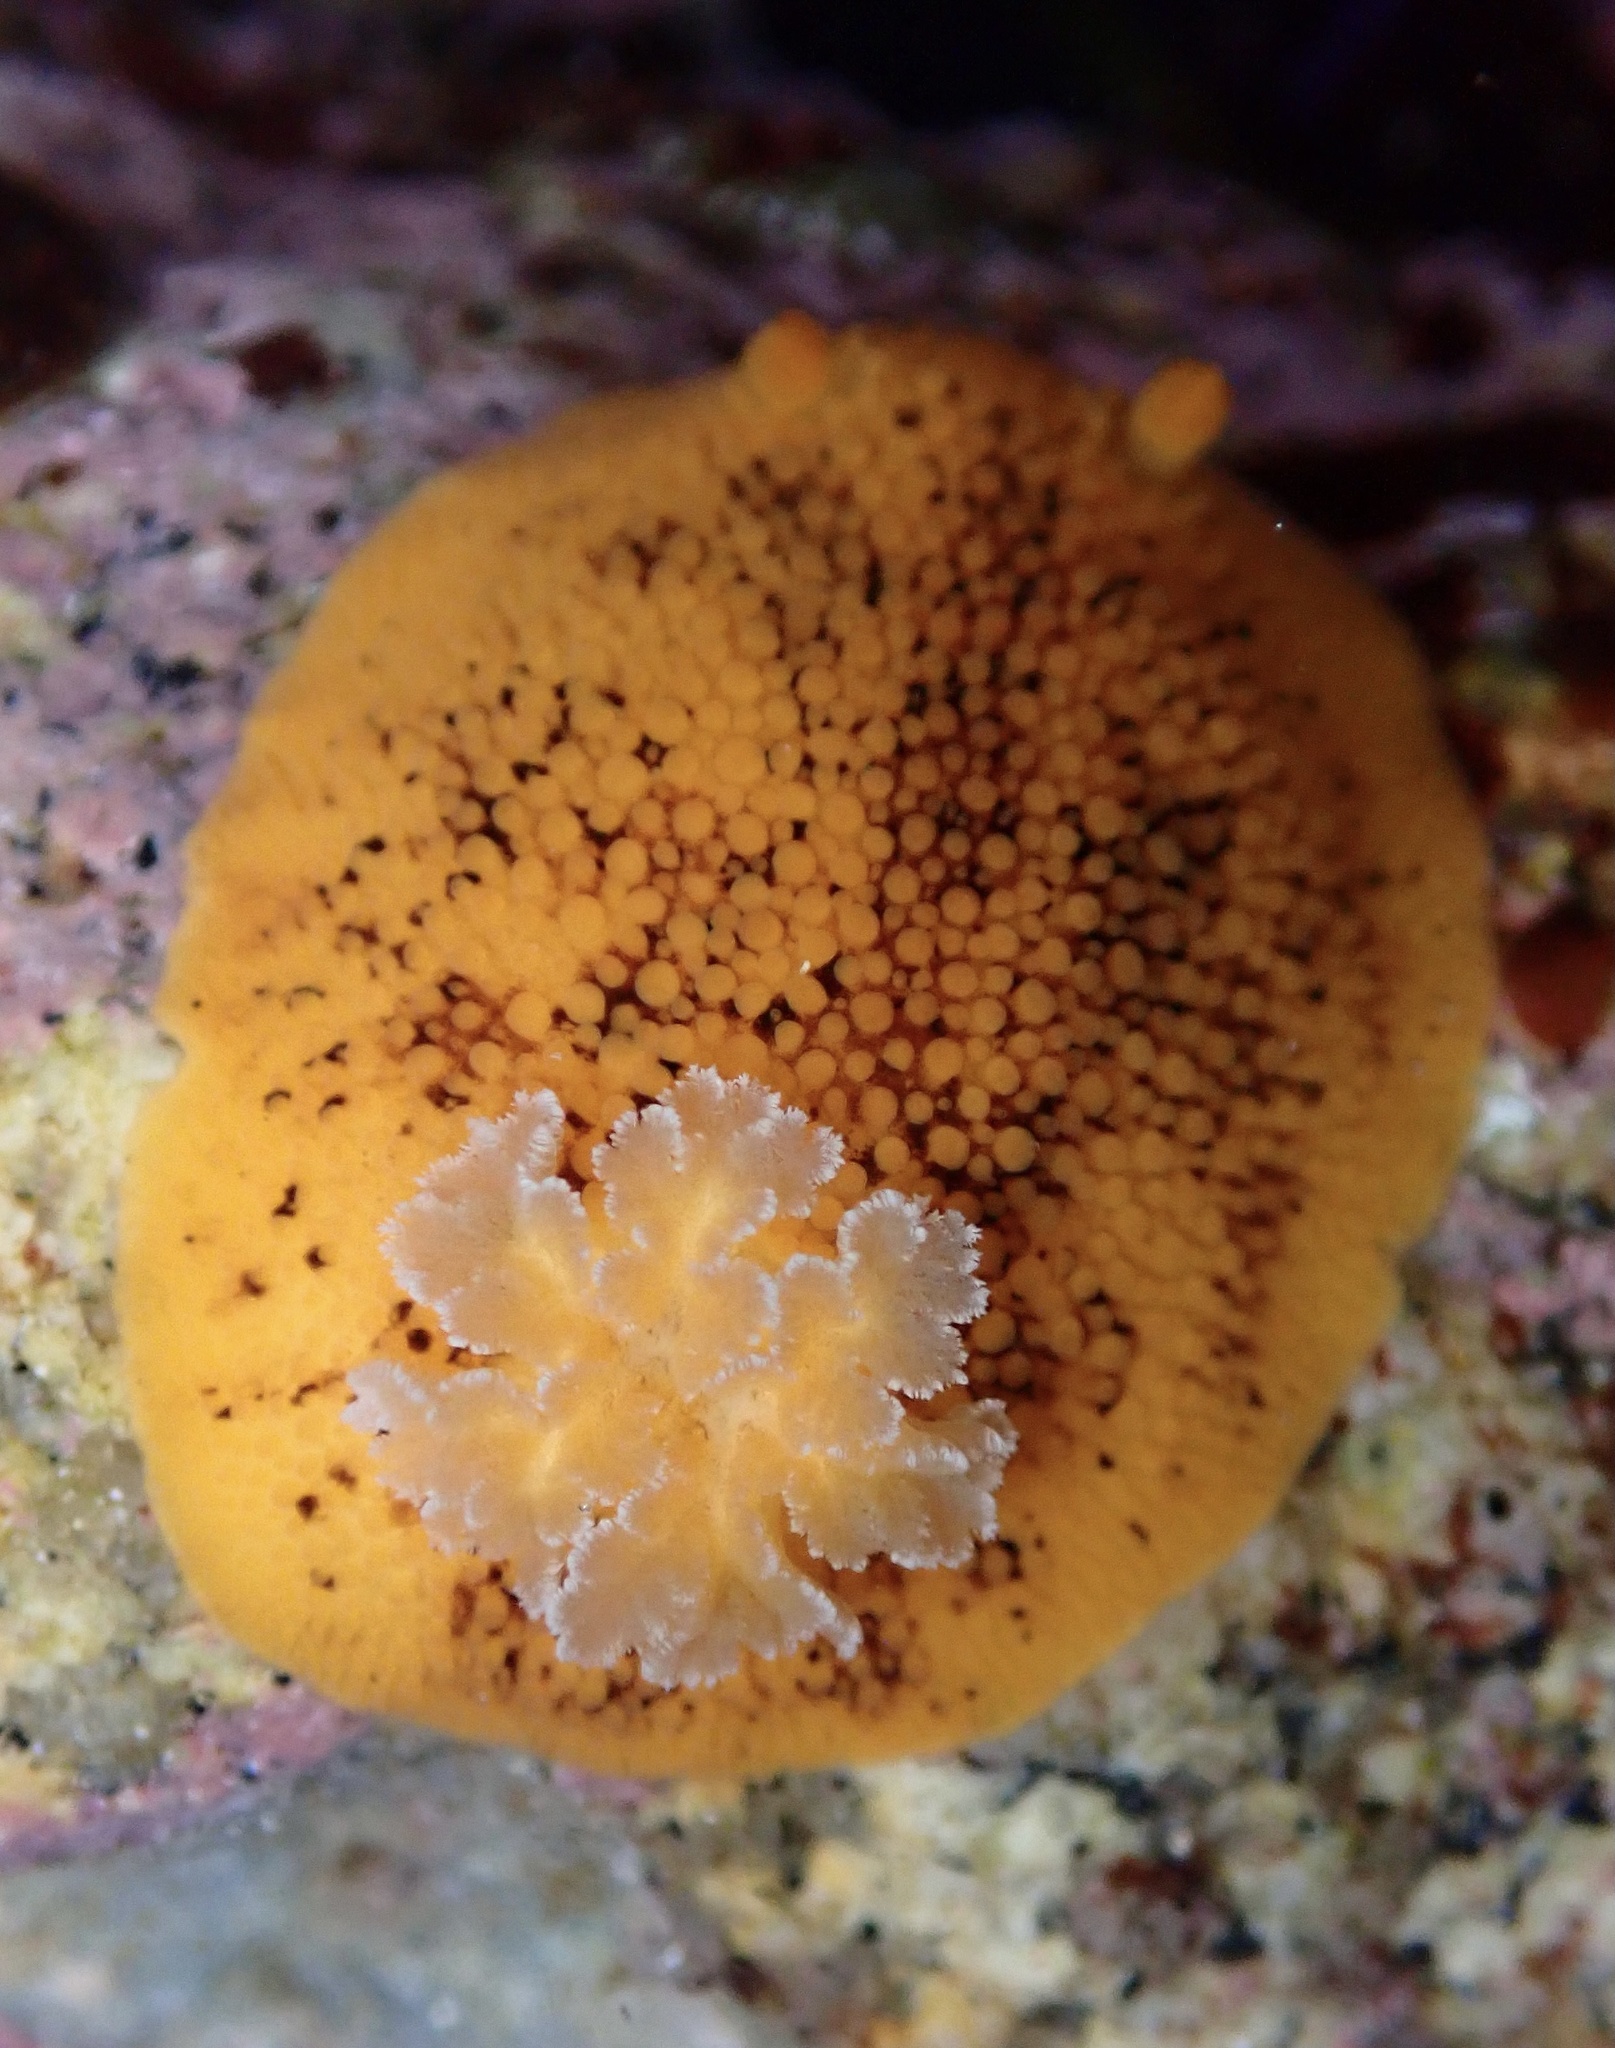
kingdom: Animalia
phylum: Mollusca
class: Gastropoda
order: Nudibranchia
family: Discodorididae
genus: Peltodoris
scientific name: Peltodoris nobilis
